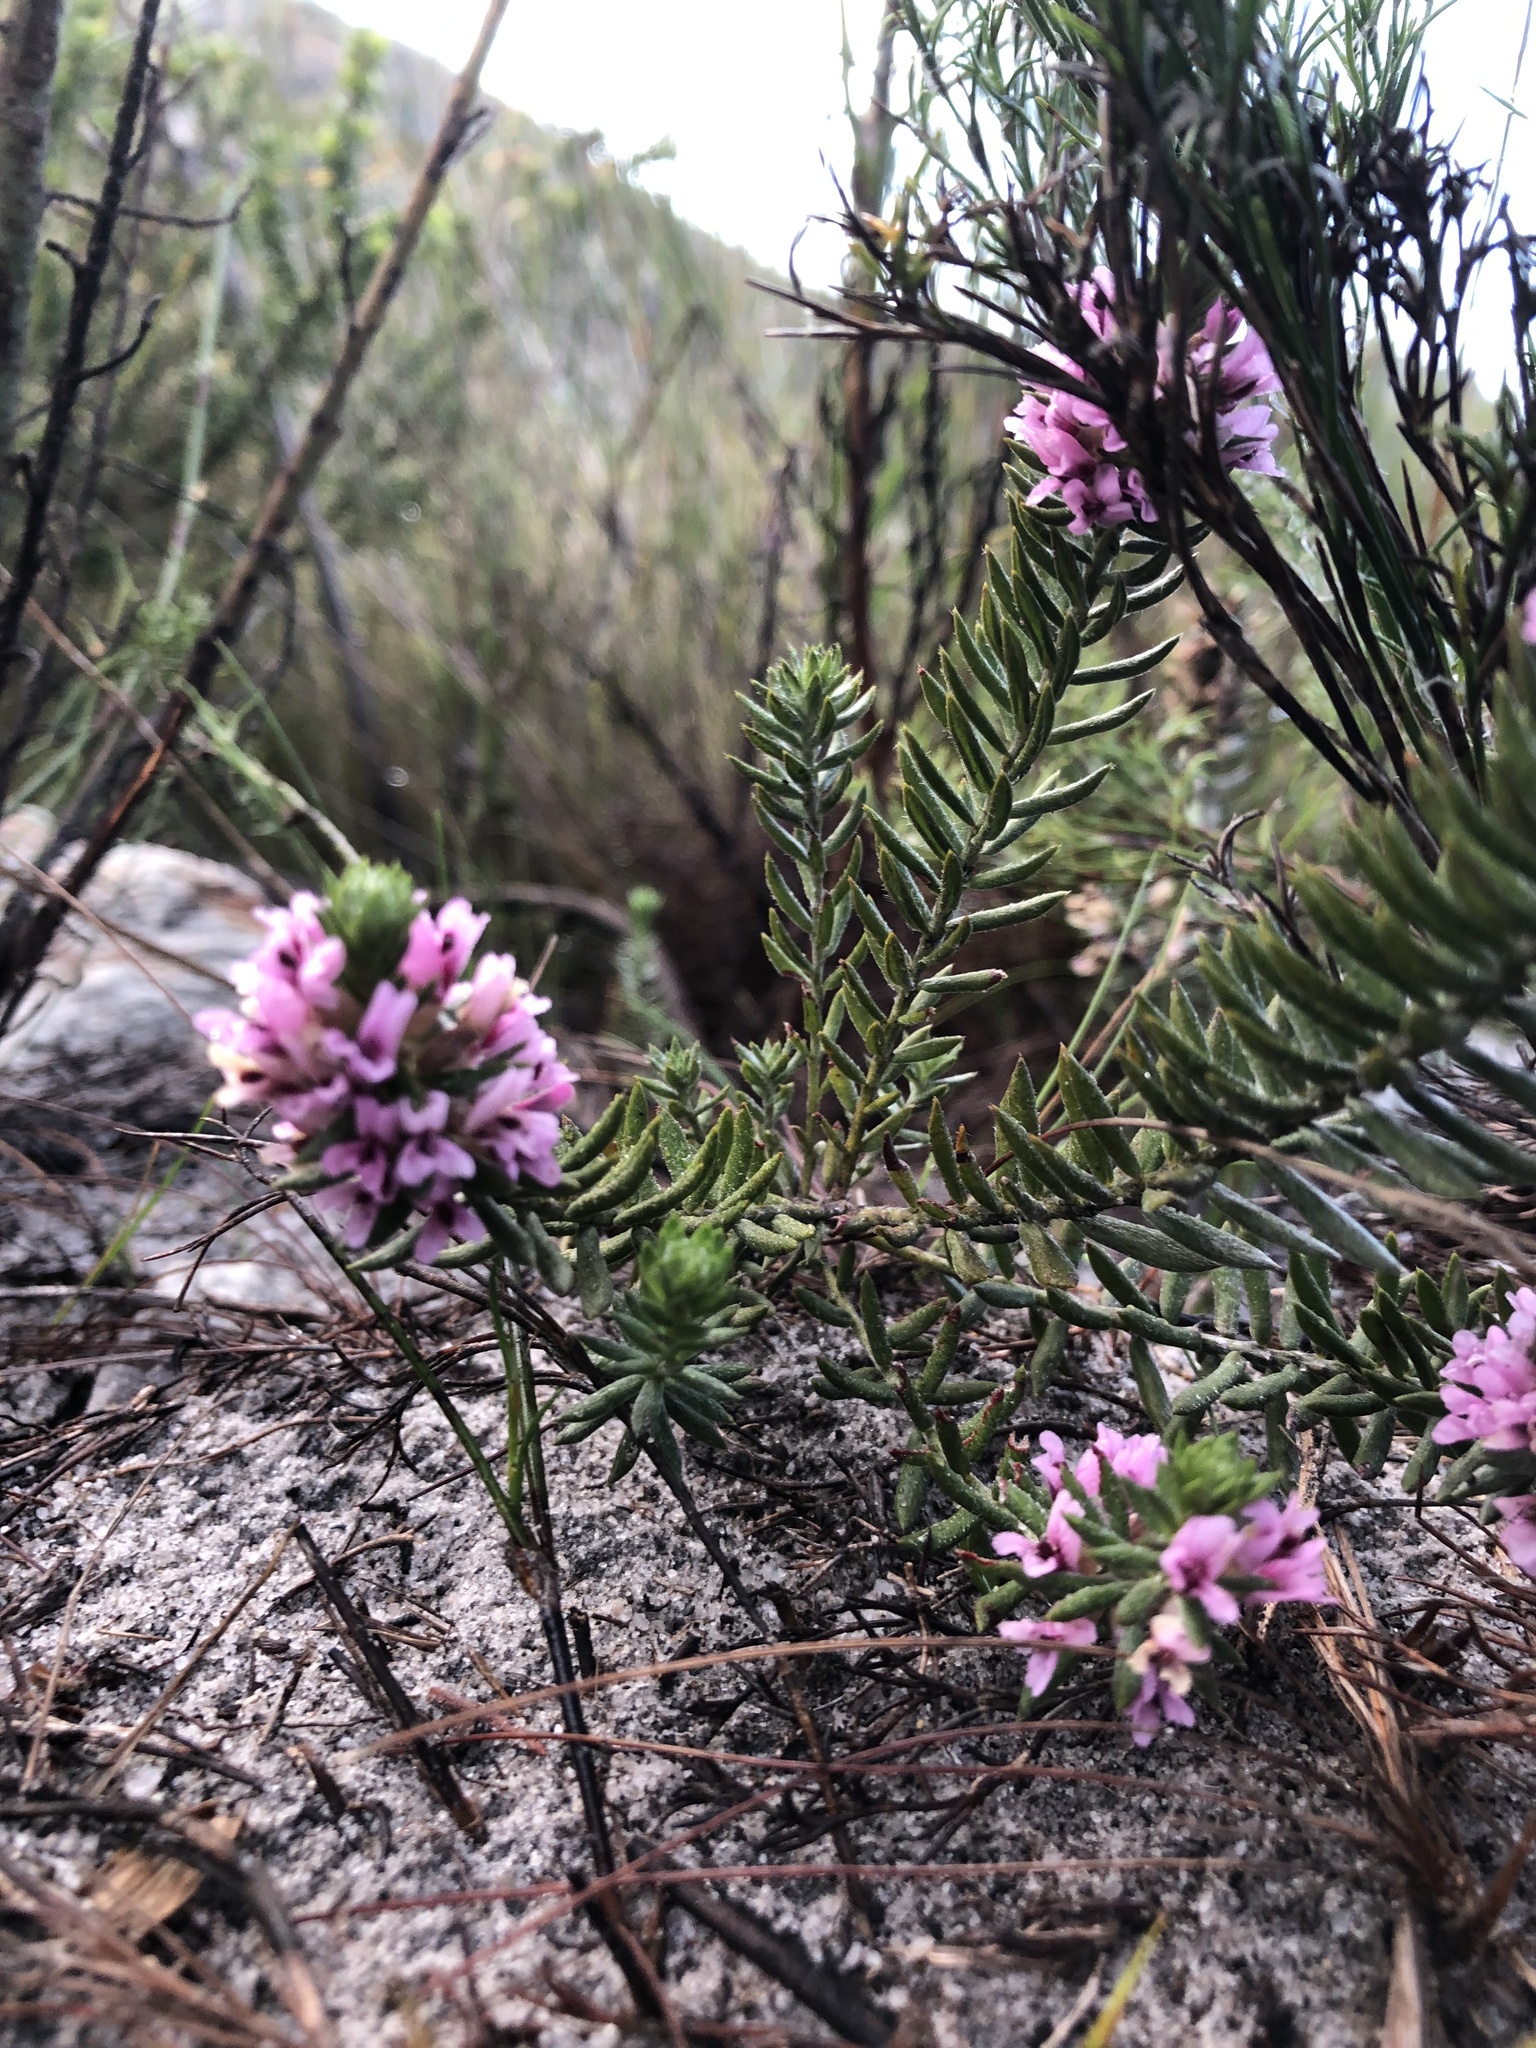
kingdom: Plantae
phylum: Tracheophyta
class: Magnoliopsida
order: Fabales
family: Fabaceae
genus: Amphithalea
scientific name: Amphithalea stokoei
